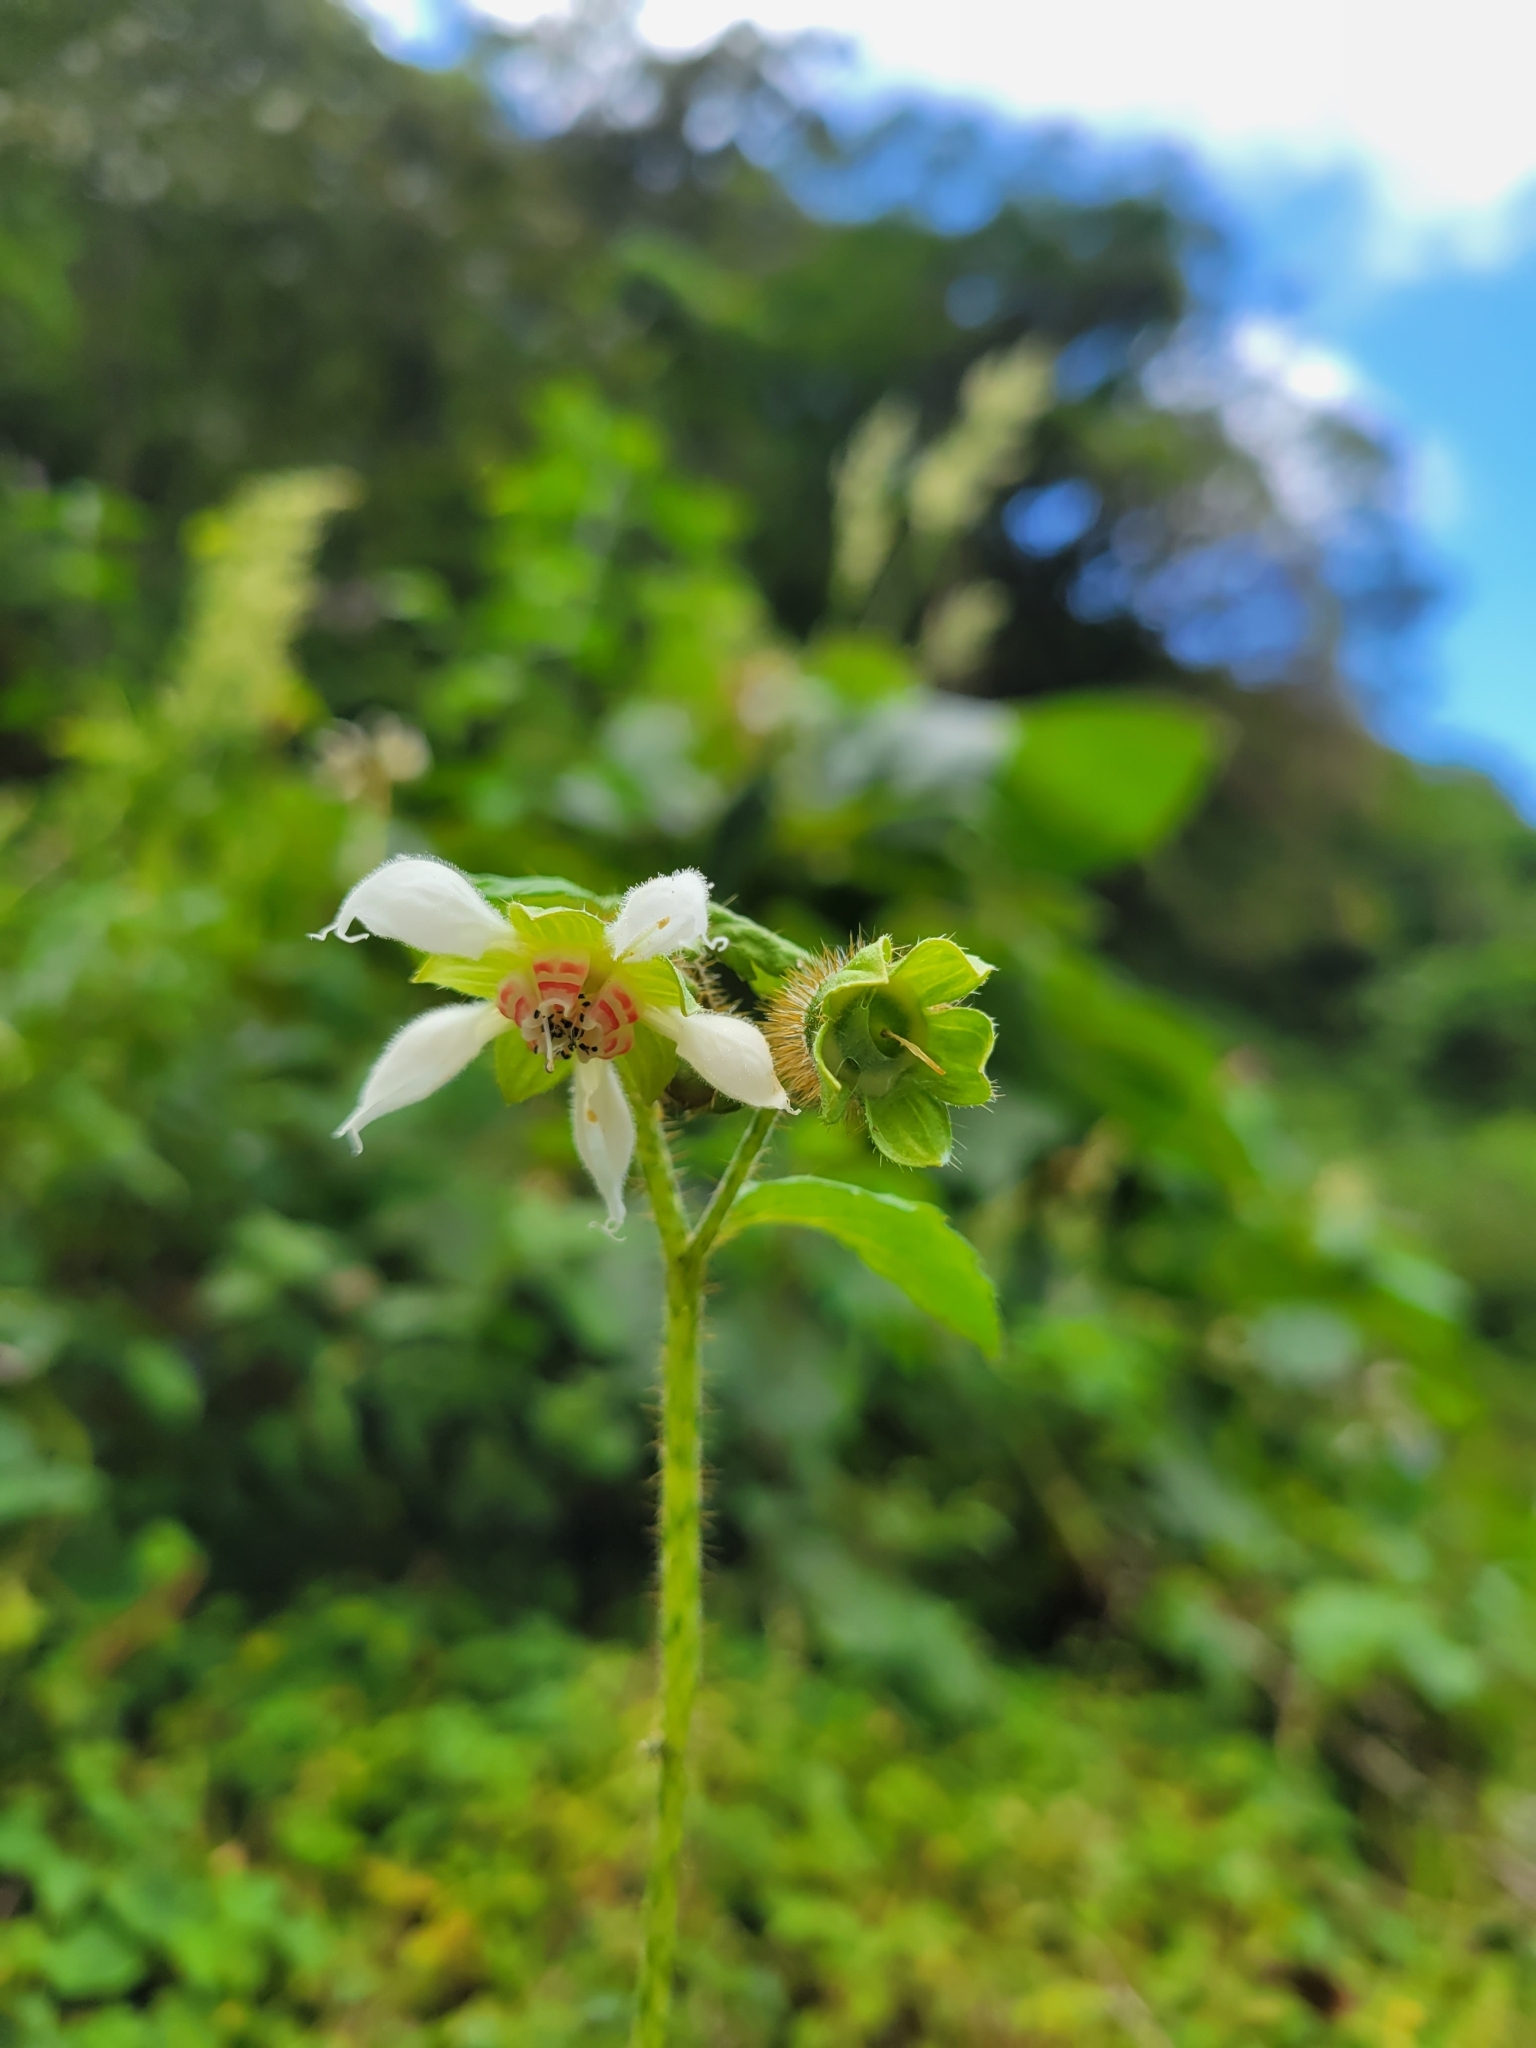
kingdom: Plantae
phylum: Tracheophyta
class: Magnoliopsida
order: Cornales
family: Loasaceae
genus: Nasa
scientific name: Nasa triphylla
